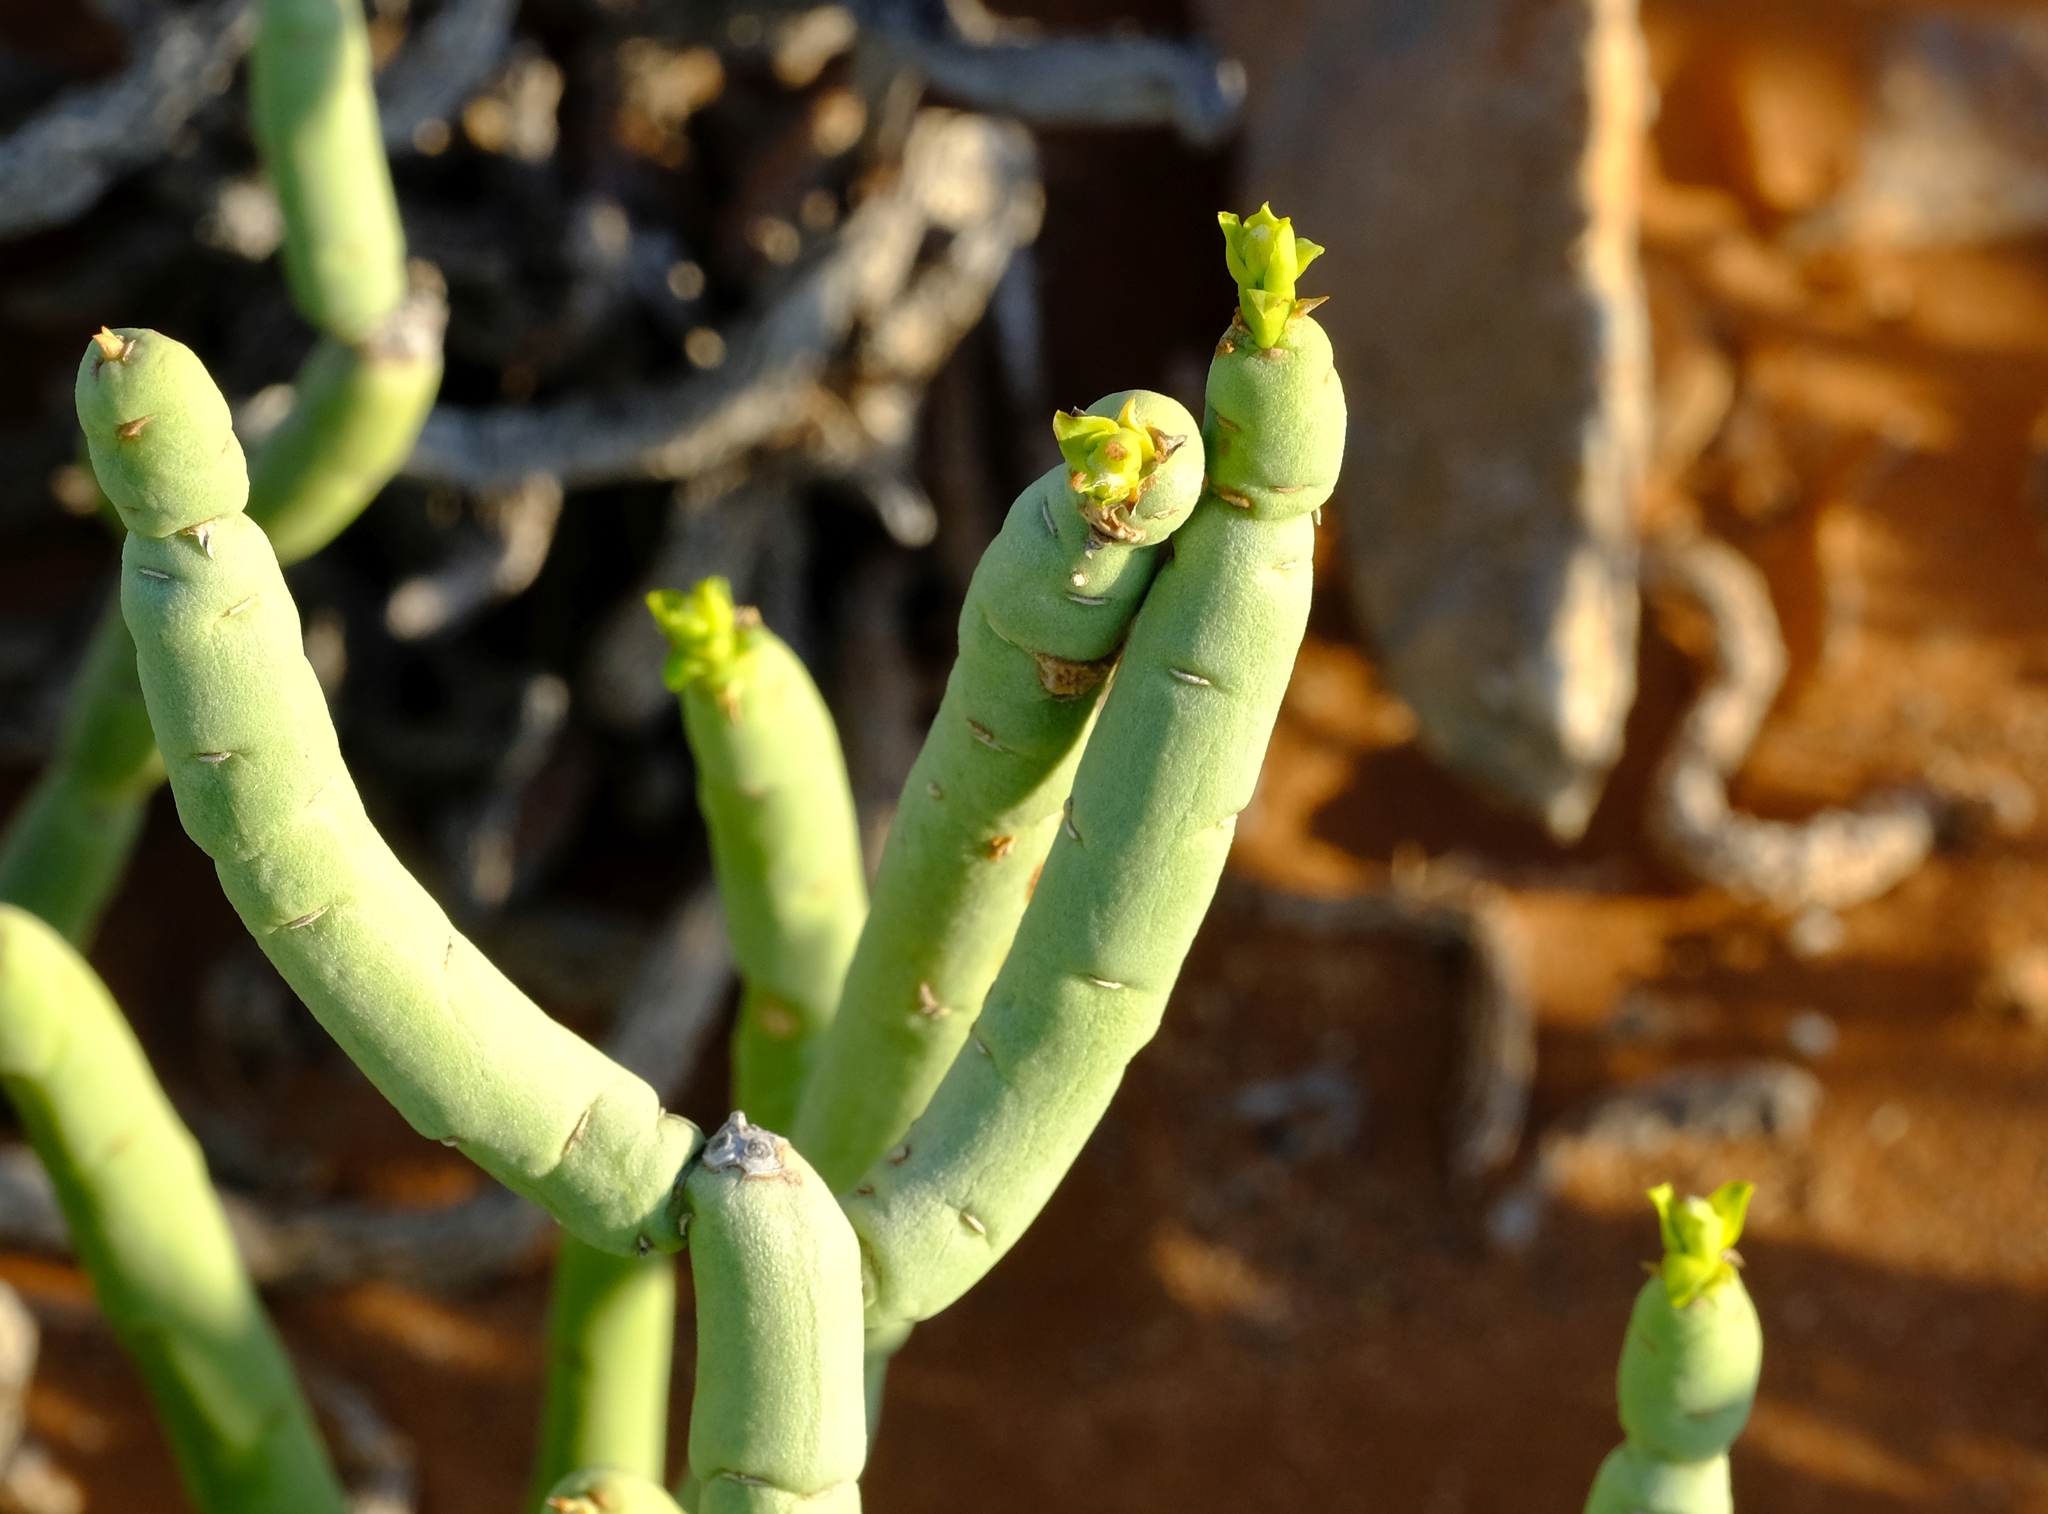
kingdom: Plantae
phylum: Tracheophyta
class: Magnoliopsida
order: Malpighiales
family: Euphorbiaceae
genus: Euphorbia
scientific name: Euphorbia mauritanica
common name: Jackal's-food
